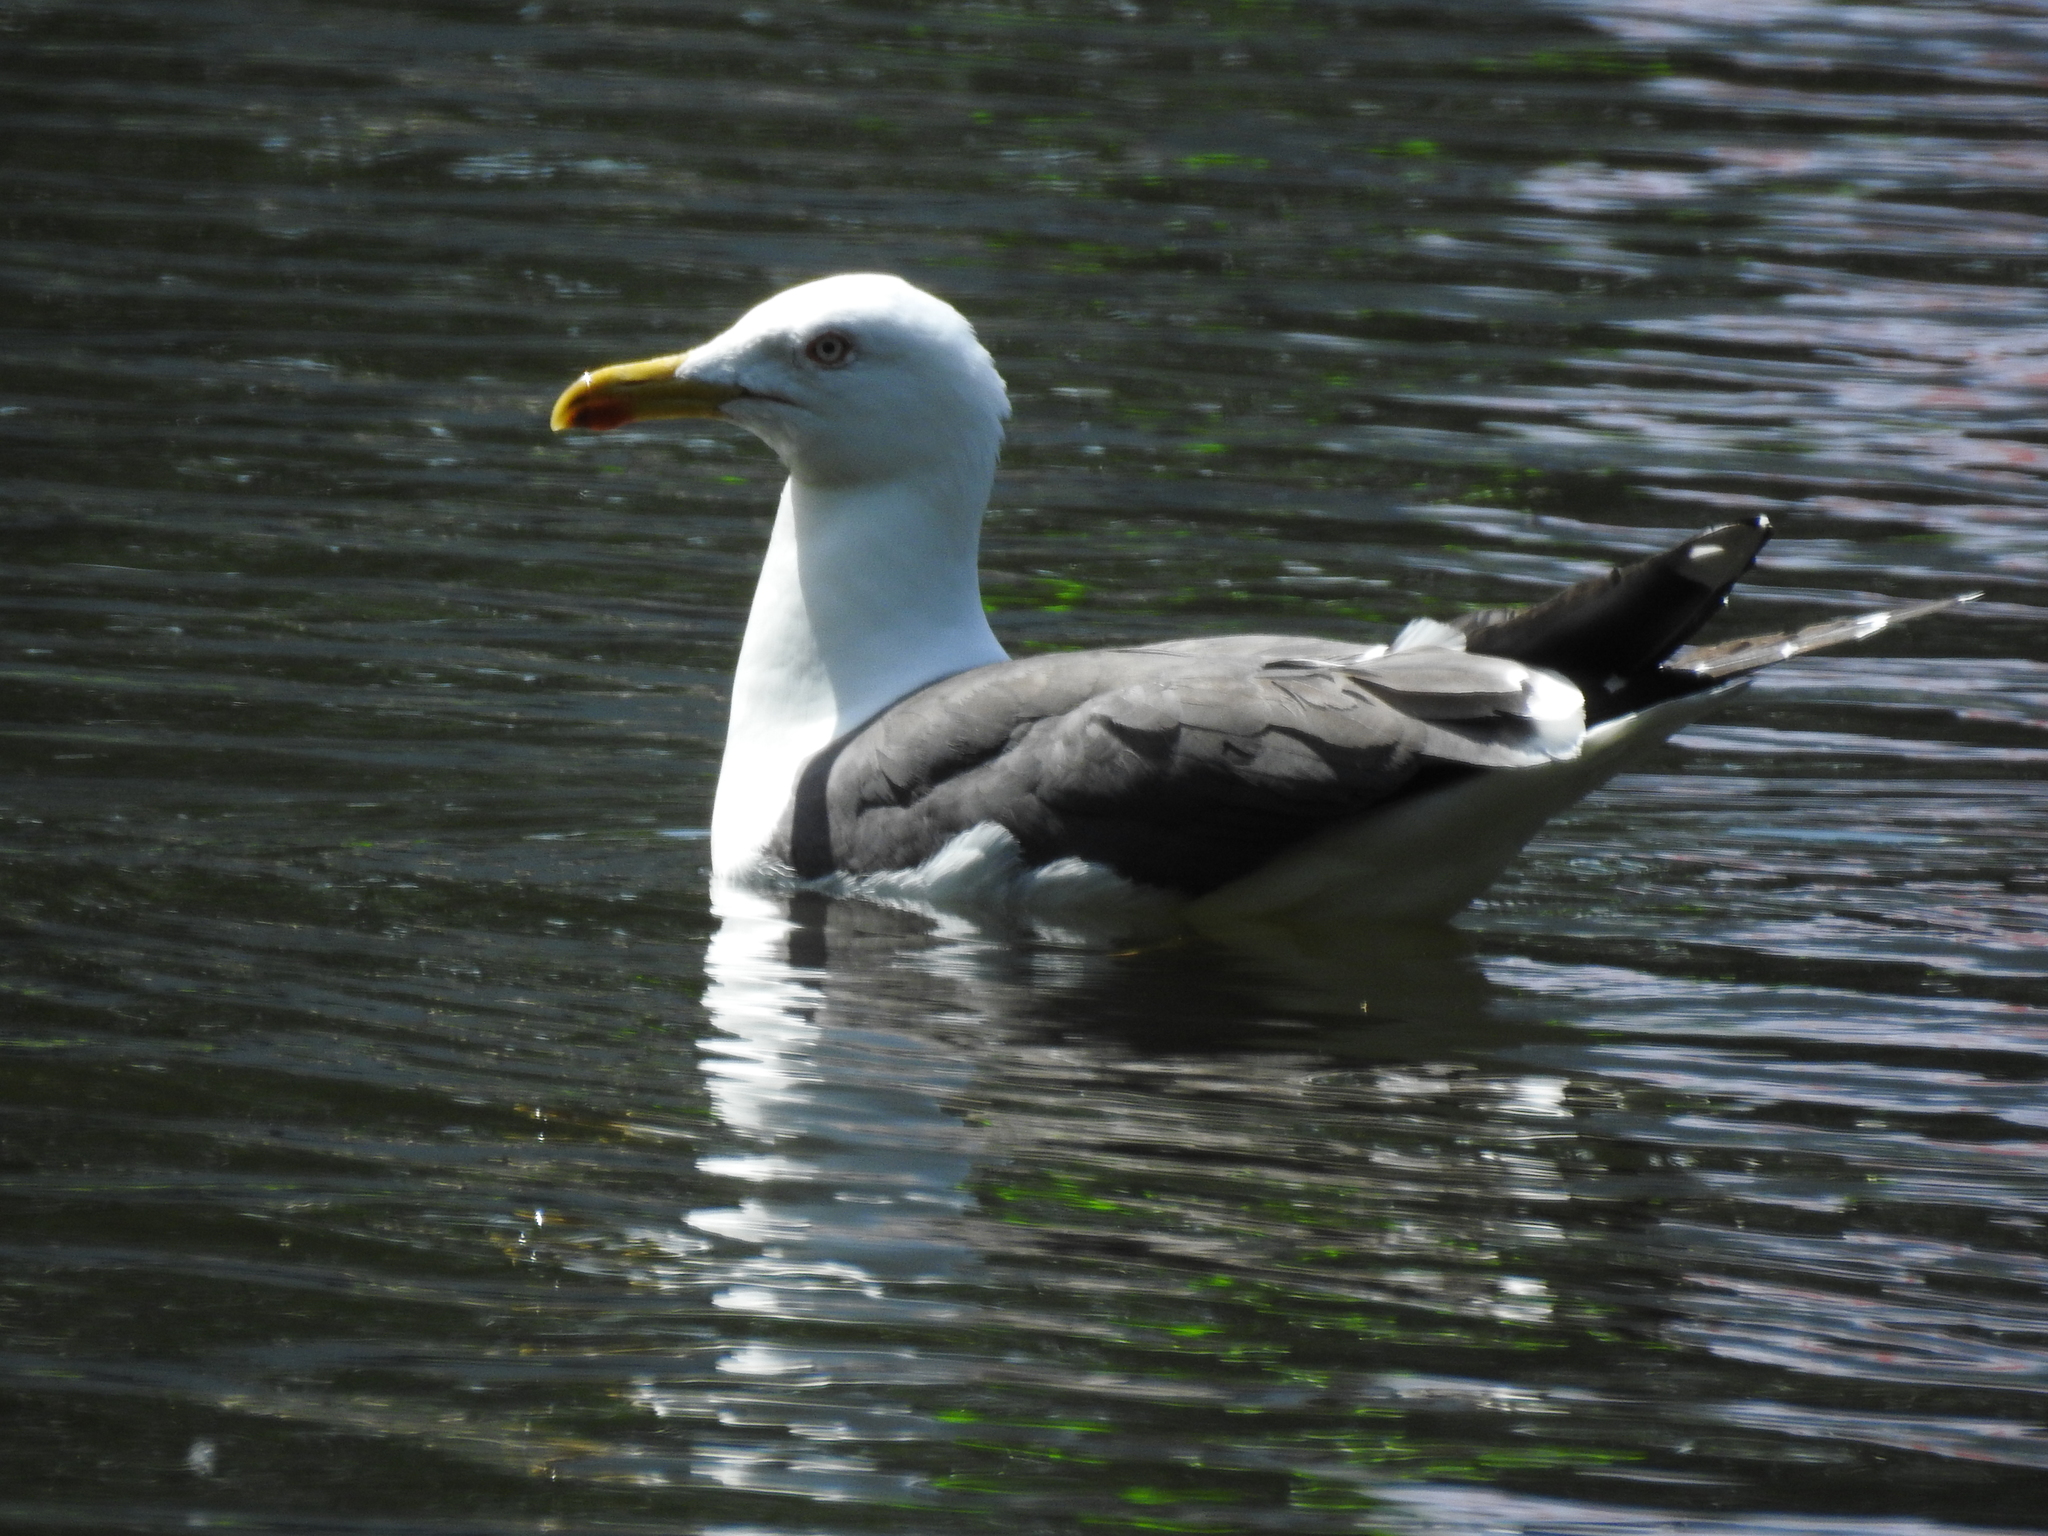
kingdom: Animalia
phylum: Chordata
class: Aves
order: Charadriiformes
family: Laridae
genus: Larus
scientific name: Larus fuscus
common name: Lesser black-backed gull
